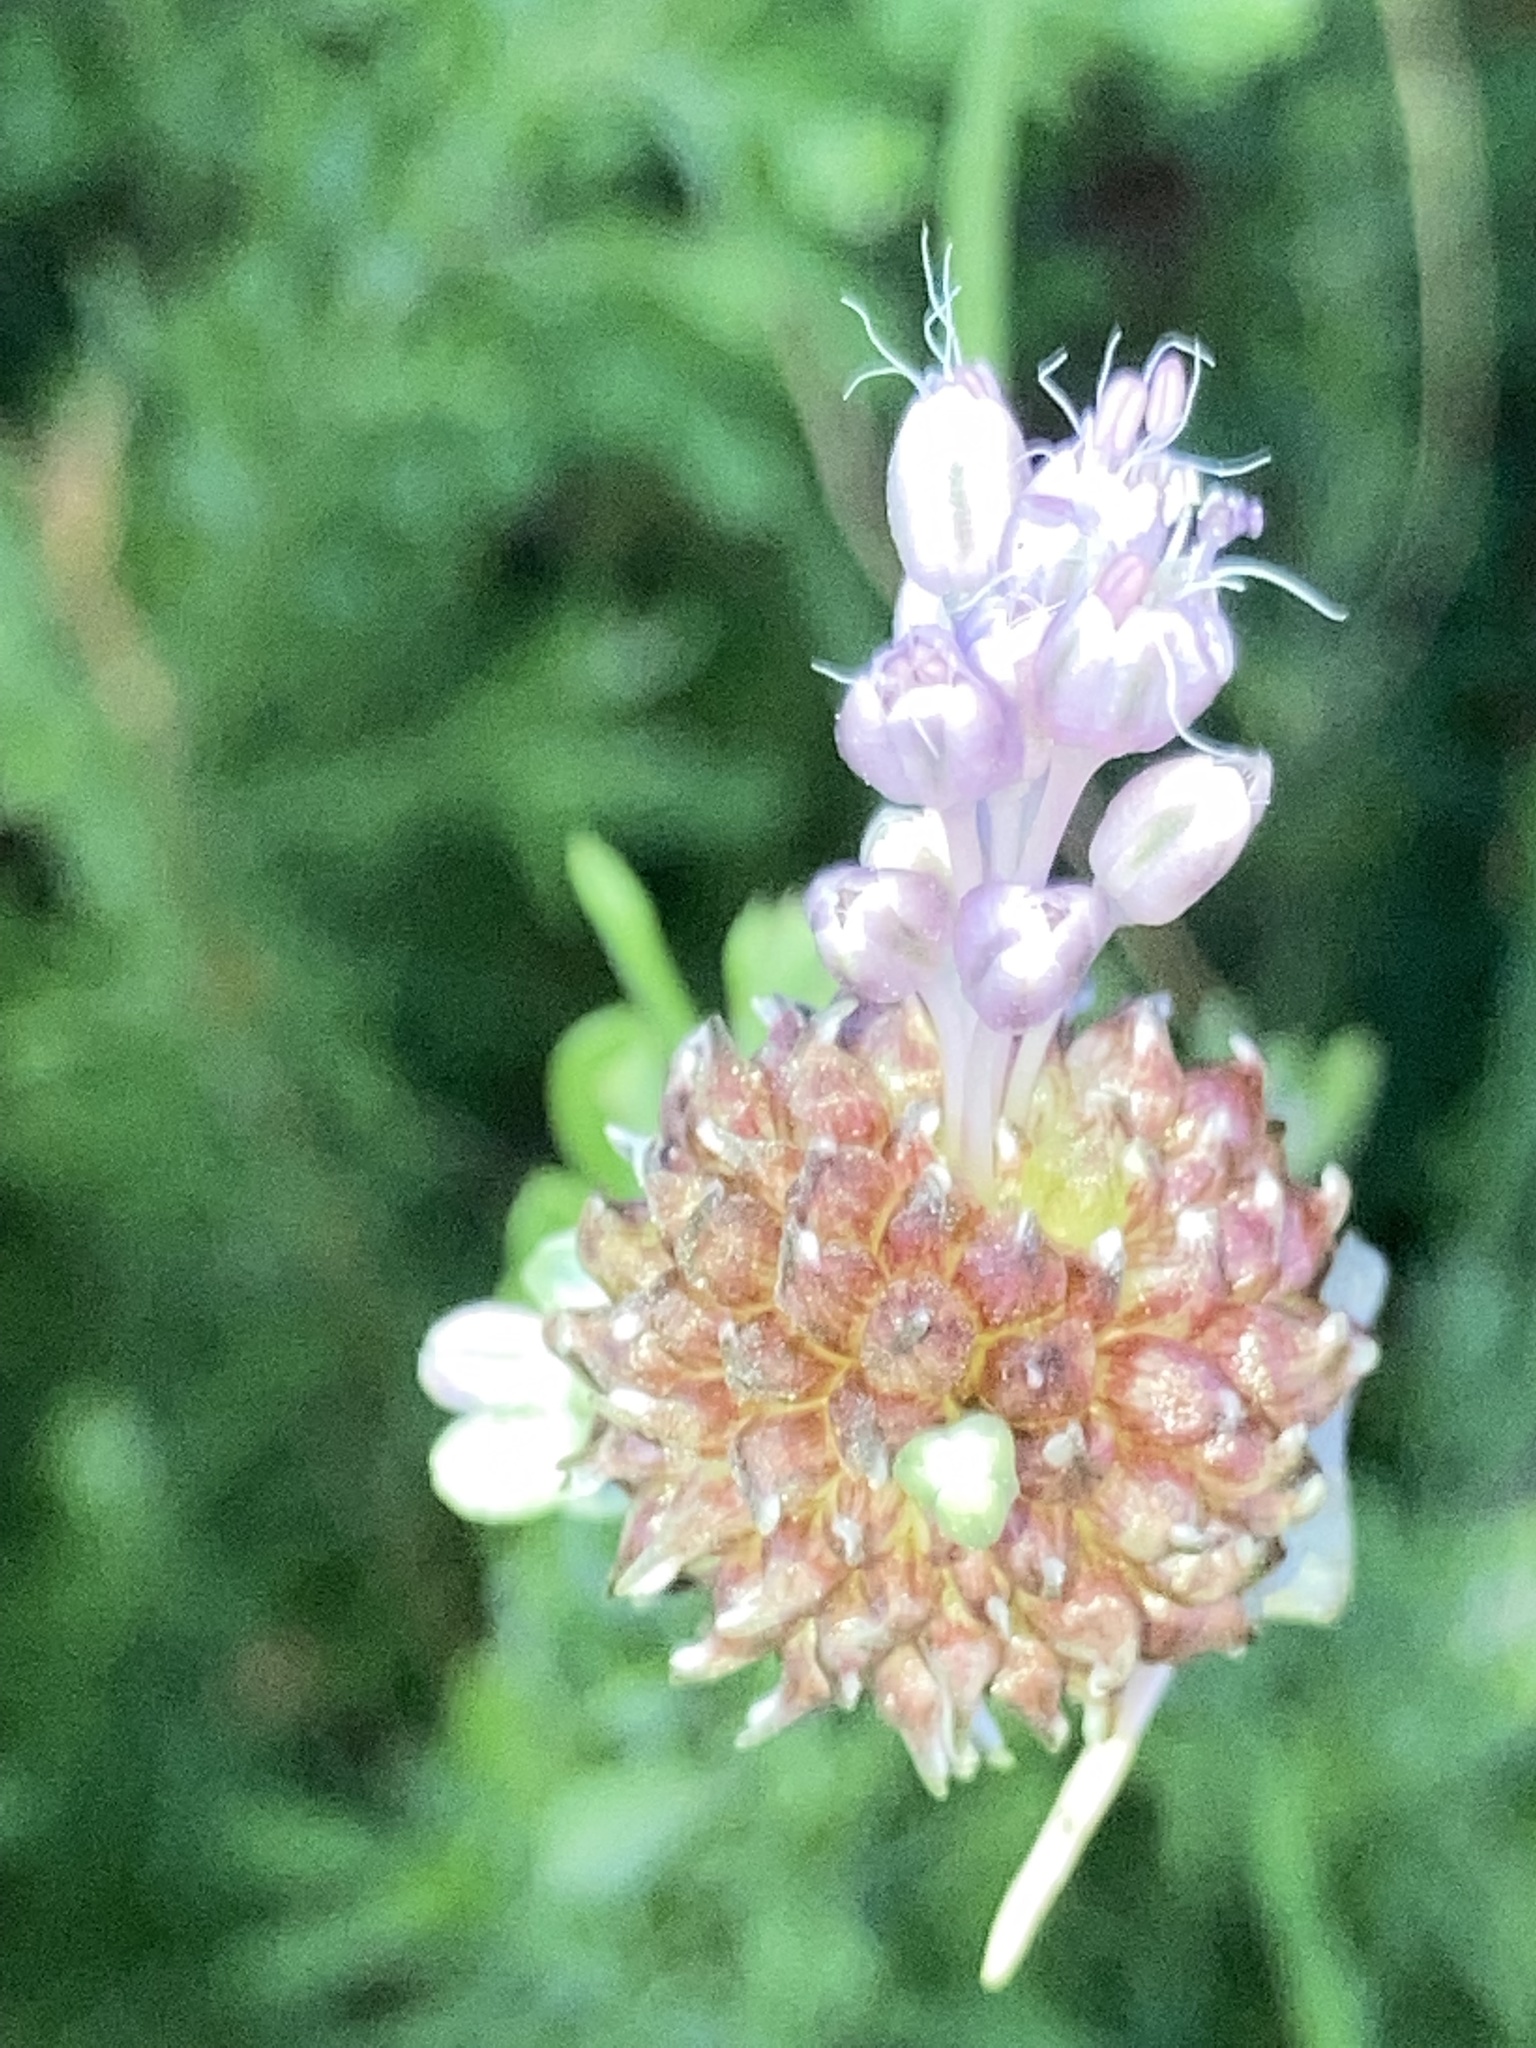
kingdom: Plantae
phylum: Tracheophyta
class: Liliopsida
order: Asparagales
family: Amaryllidaceae
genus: Allium
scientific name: Allium vineale
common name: Crow garlic
